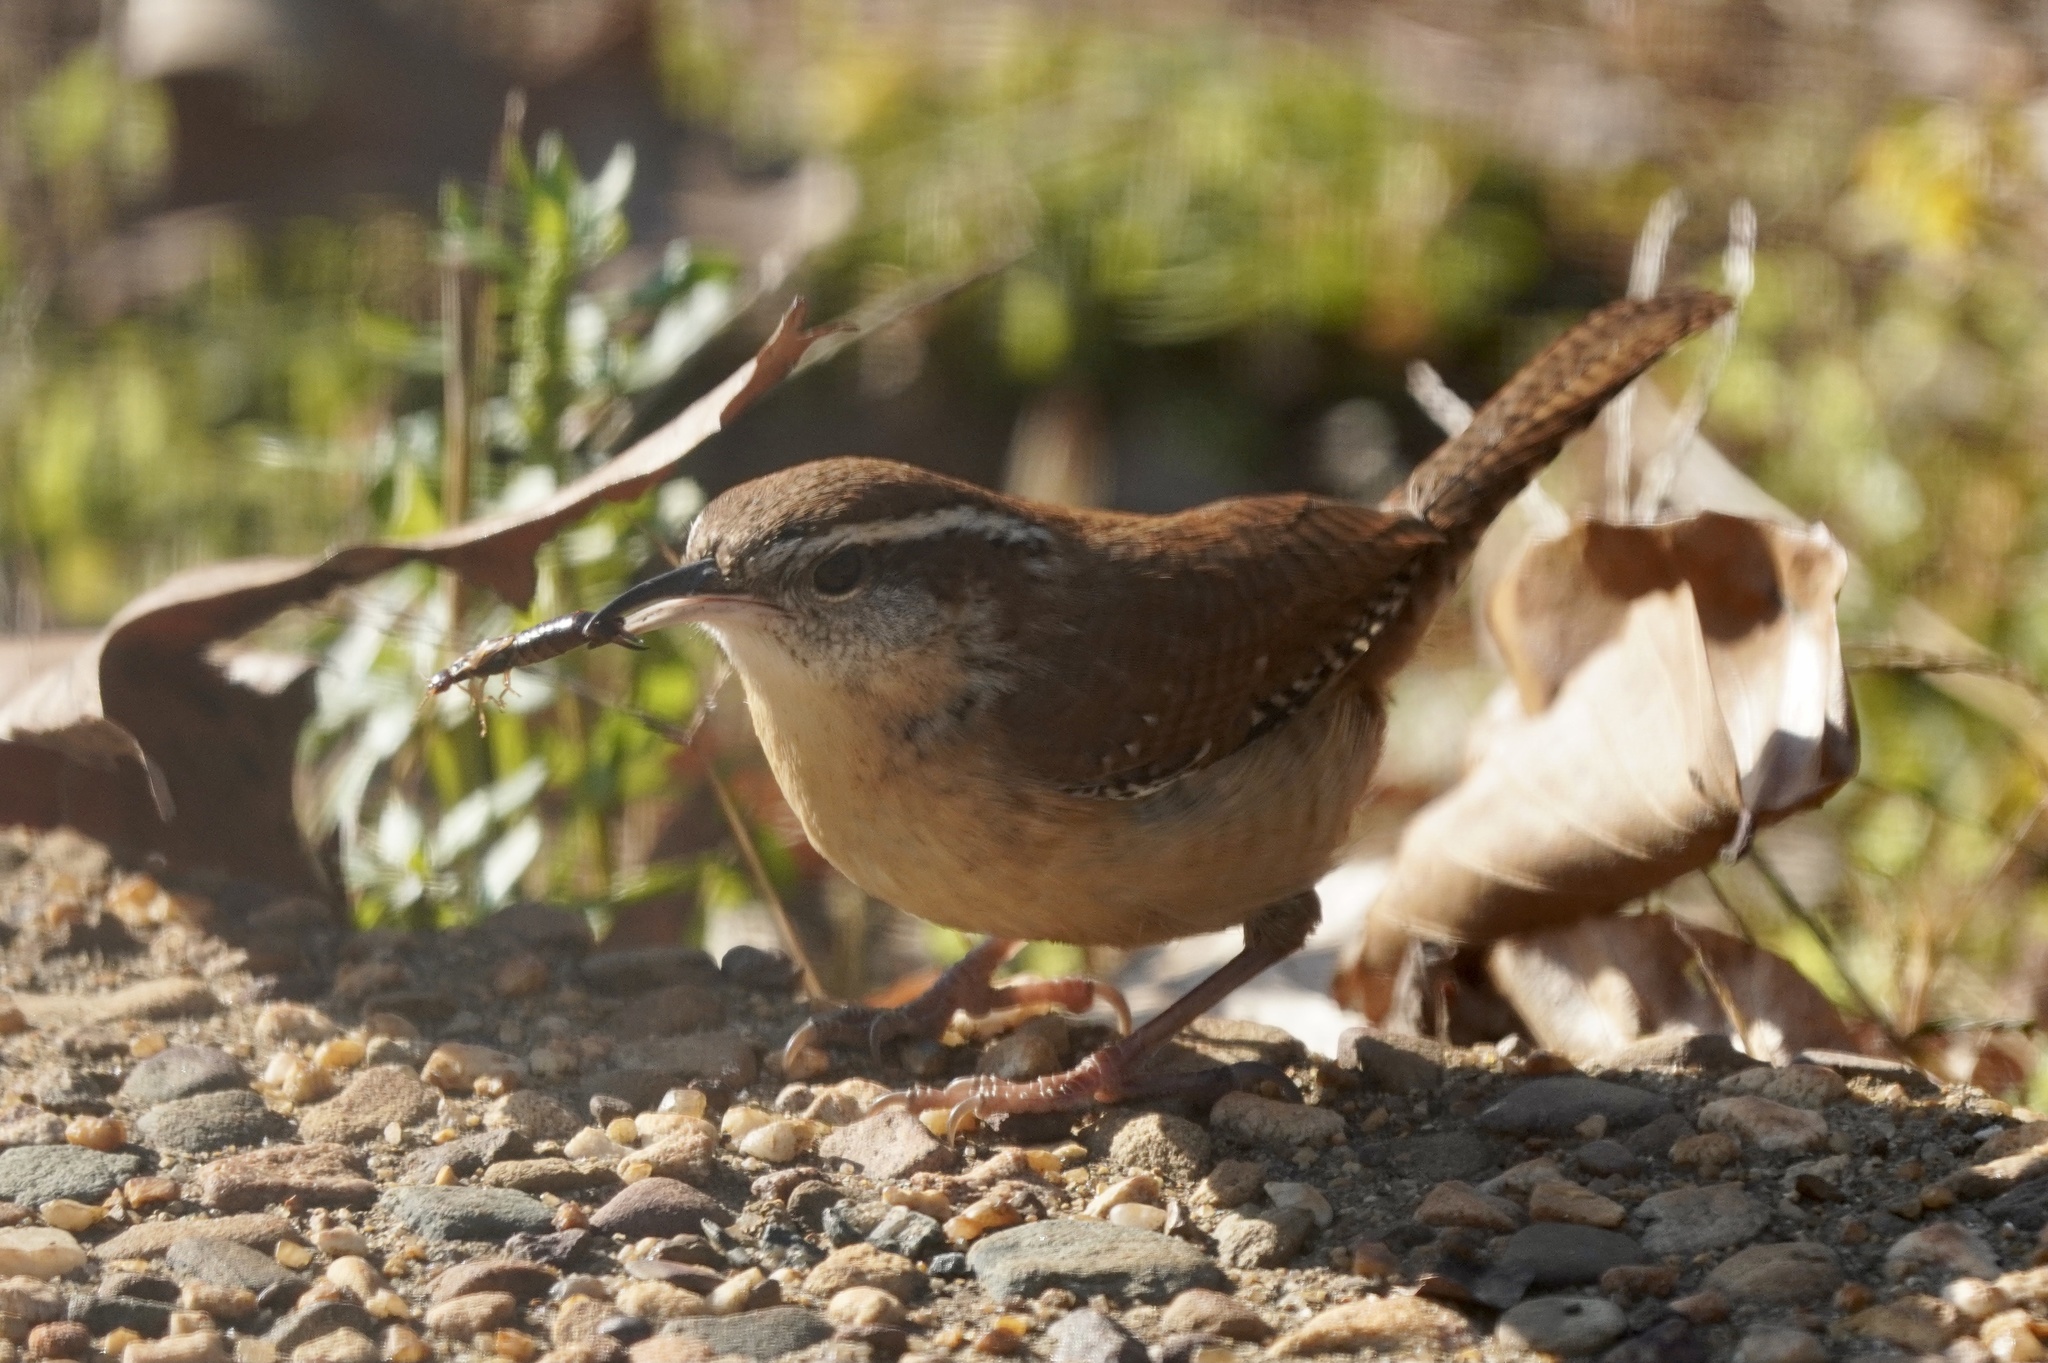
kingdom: Animalia
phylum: Chordata
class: Aves
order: Passeriformes
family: Troglodytidae
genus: Thryothorus
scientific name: Thryothorus ludovicianus
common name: Carolina wren
